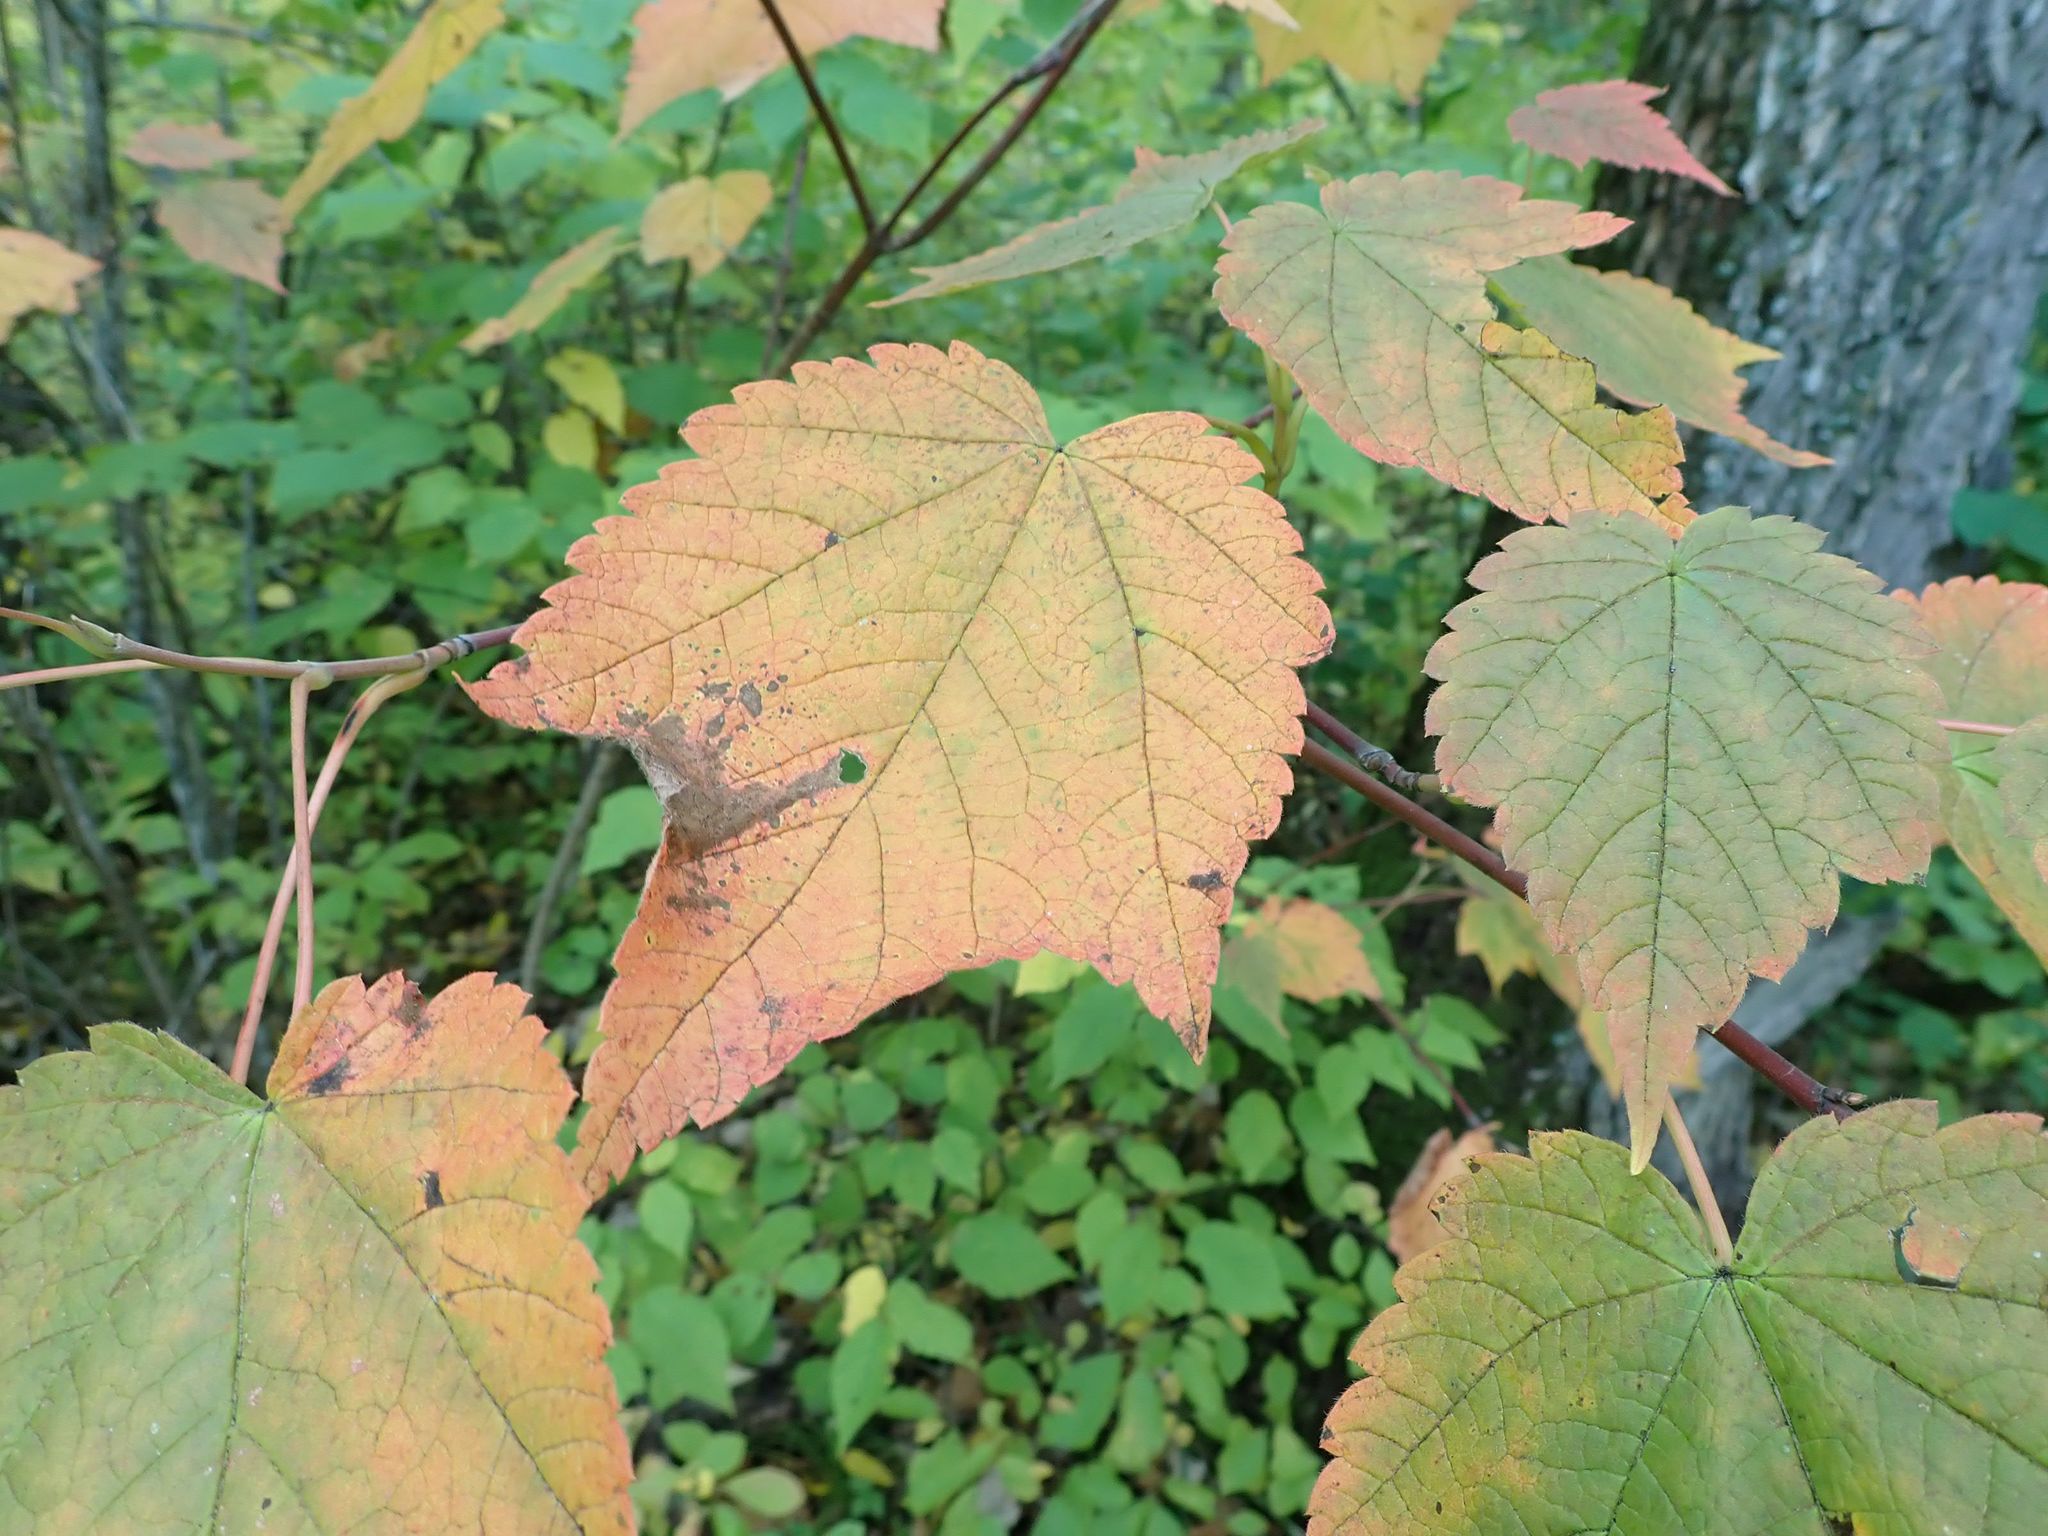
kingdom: Plantae
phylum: Tracheophyta
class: Magnoliopsida
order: Sapindales
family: Sapindaceae
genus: Acer
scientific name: Acer spicatum
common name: Mountain maple
